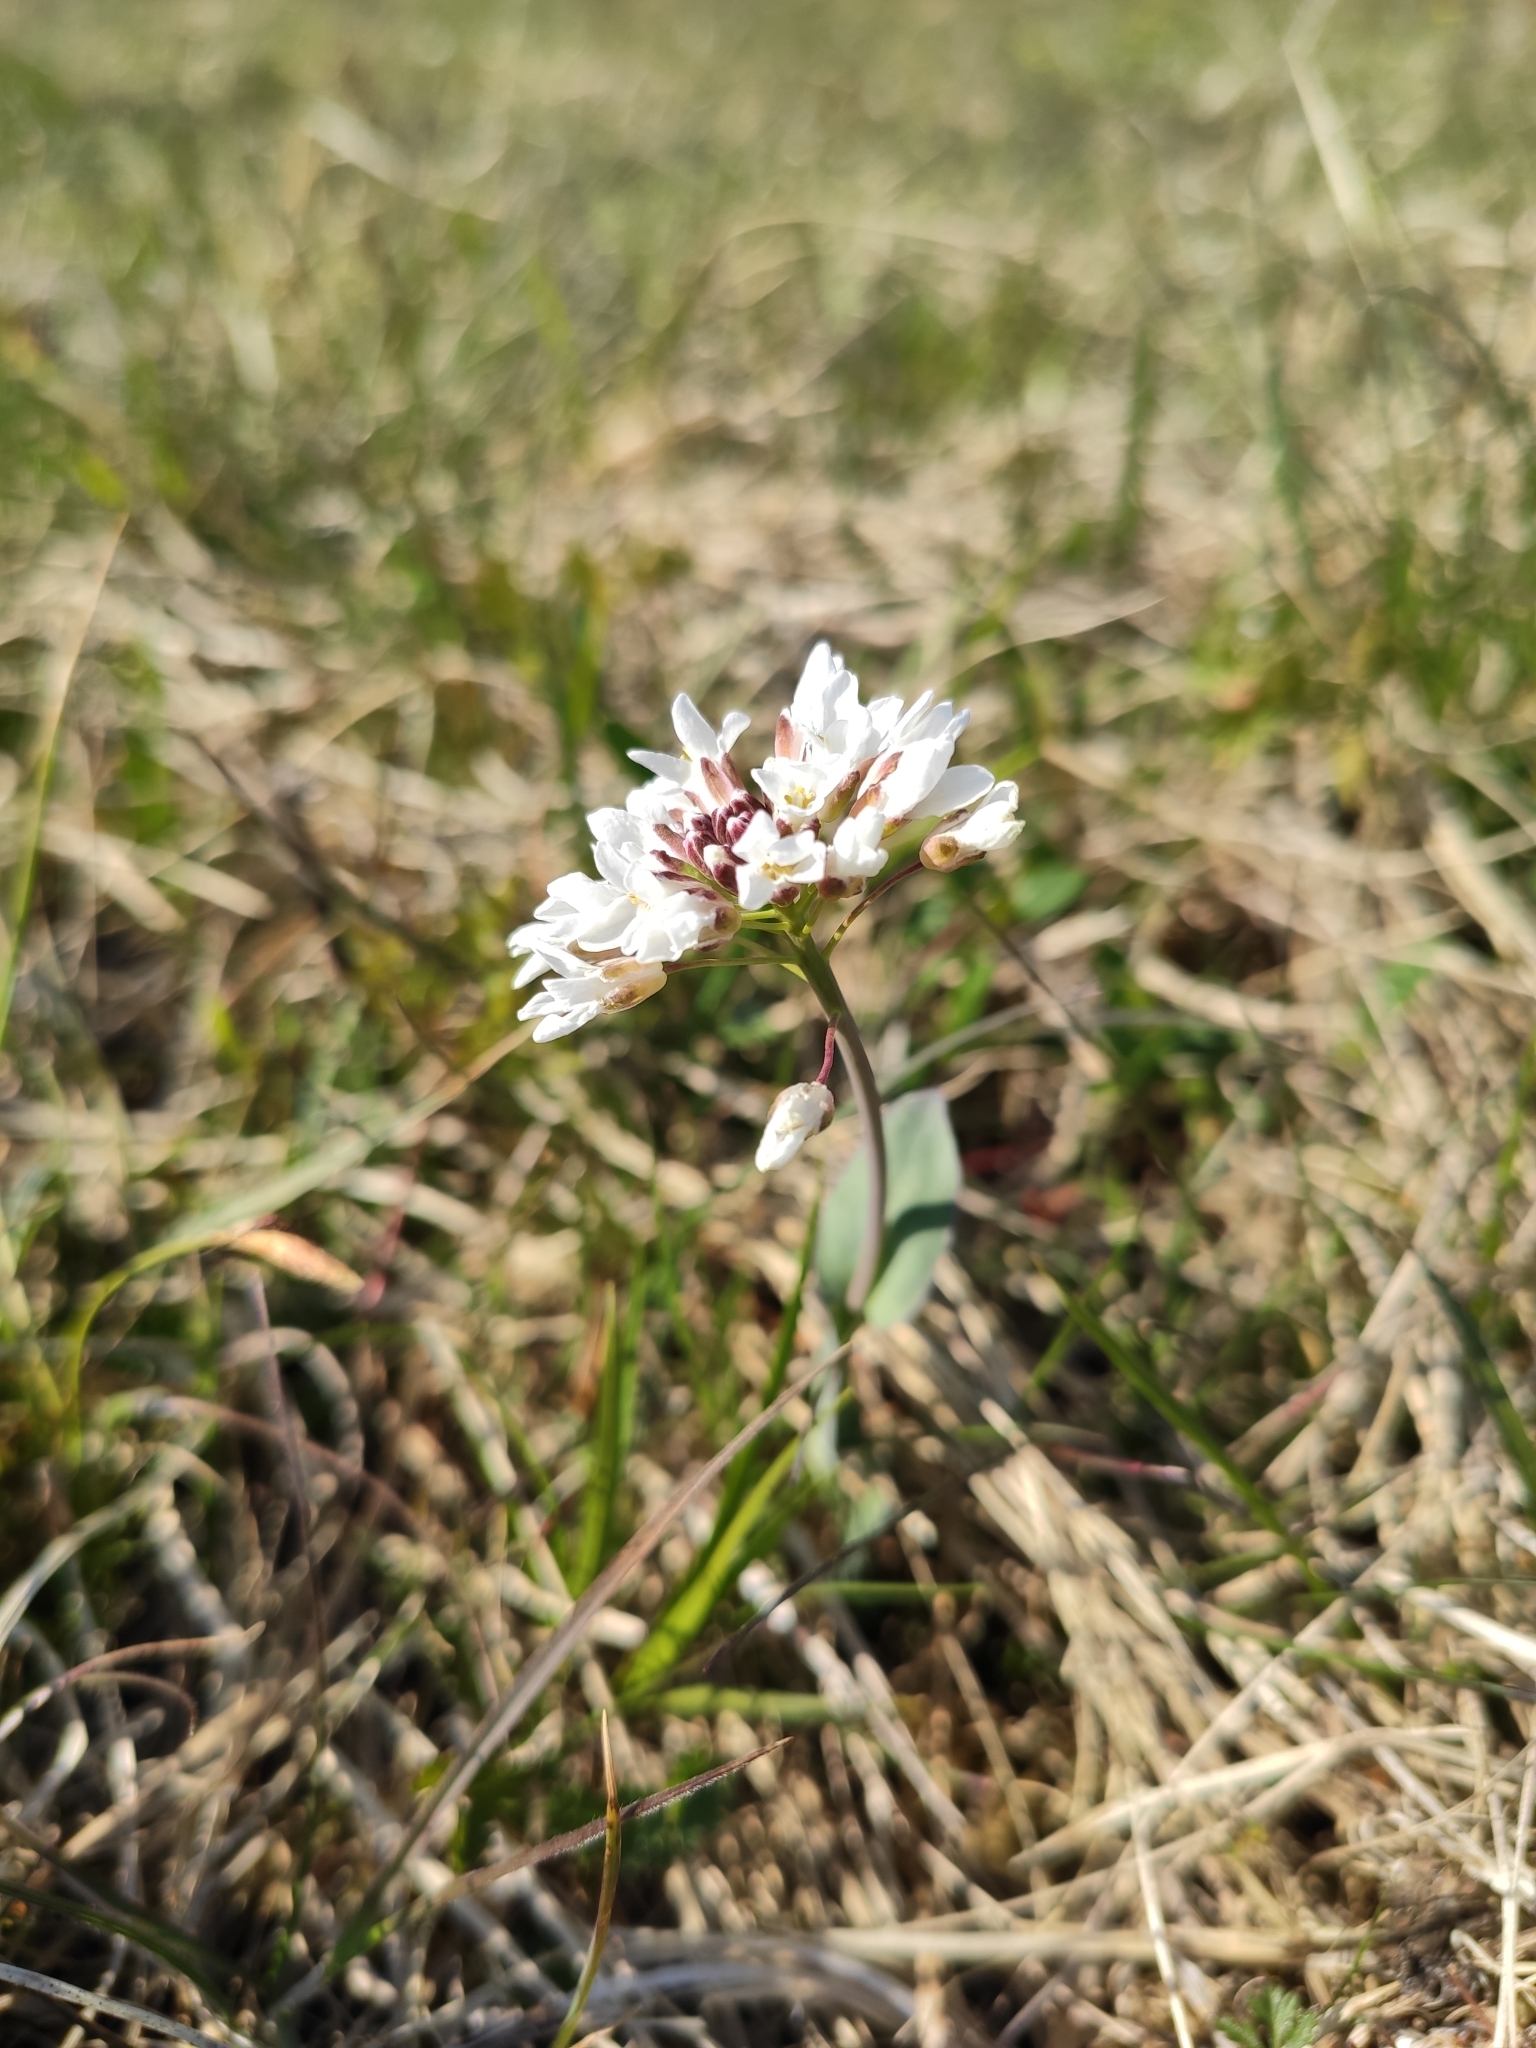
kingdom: Plantae
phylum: Tracheophyta
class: Magnoliopsida
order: Brassicales
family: Brassicaceae
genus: Noccaea
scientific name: Noccaea perfoliata
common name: Perfoliate pennycress
